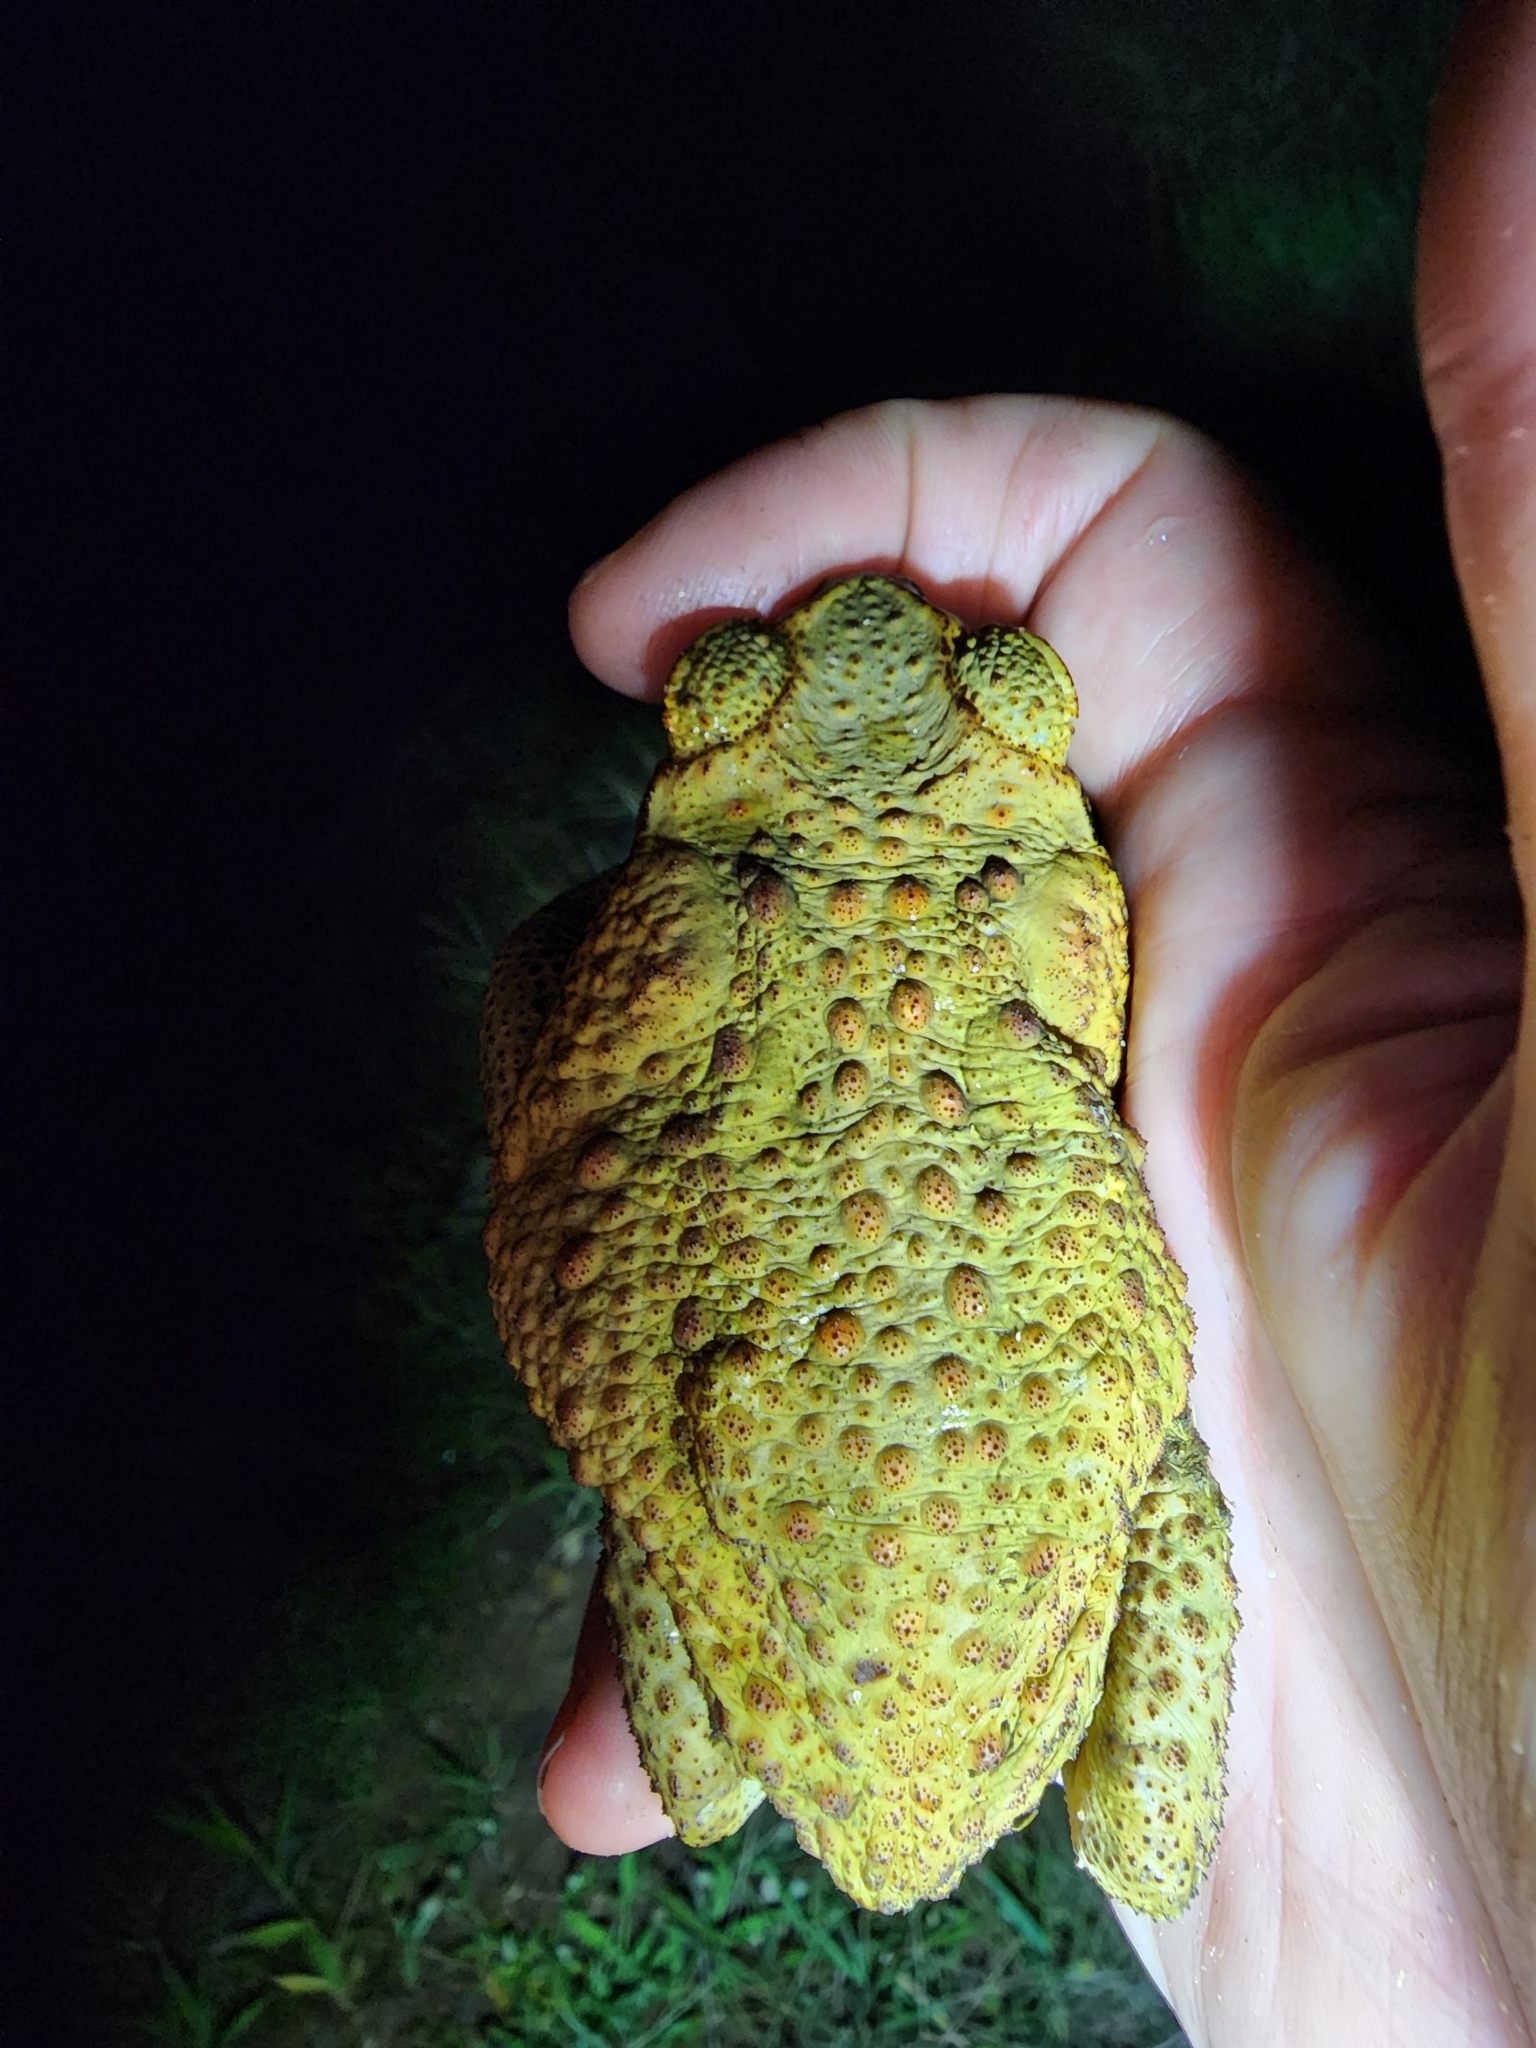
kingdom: Animalia
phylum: Chordata
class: Amphibia
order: Anura
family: Bufonidae
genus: Rhinella
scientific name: Rhinella marina
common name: Cane toad
